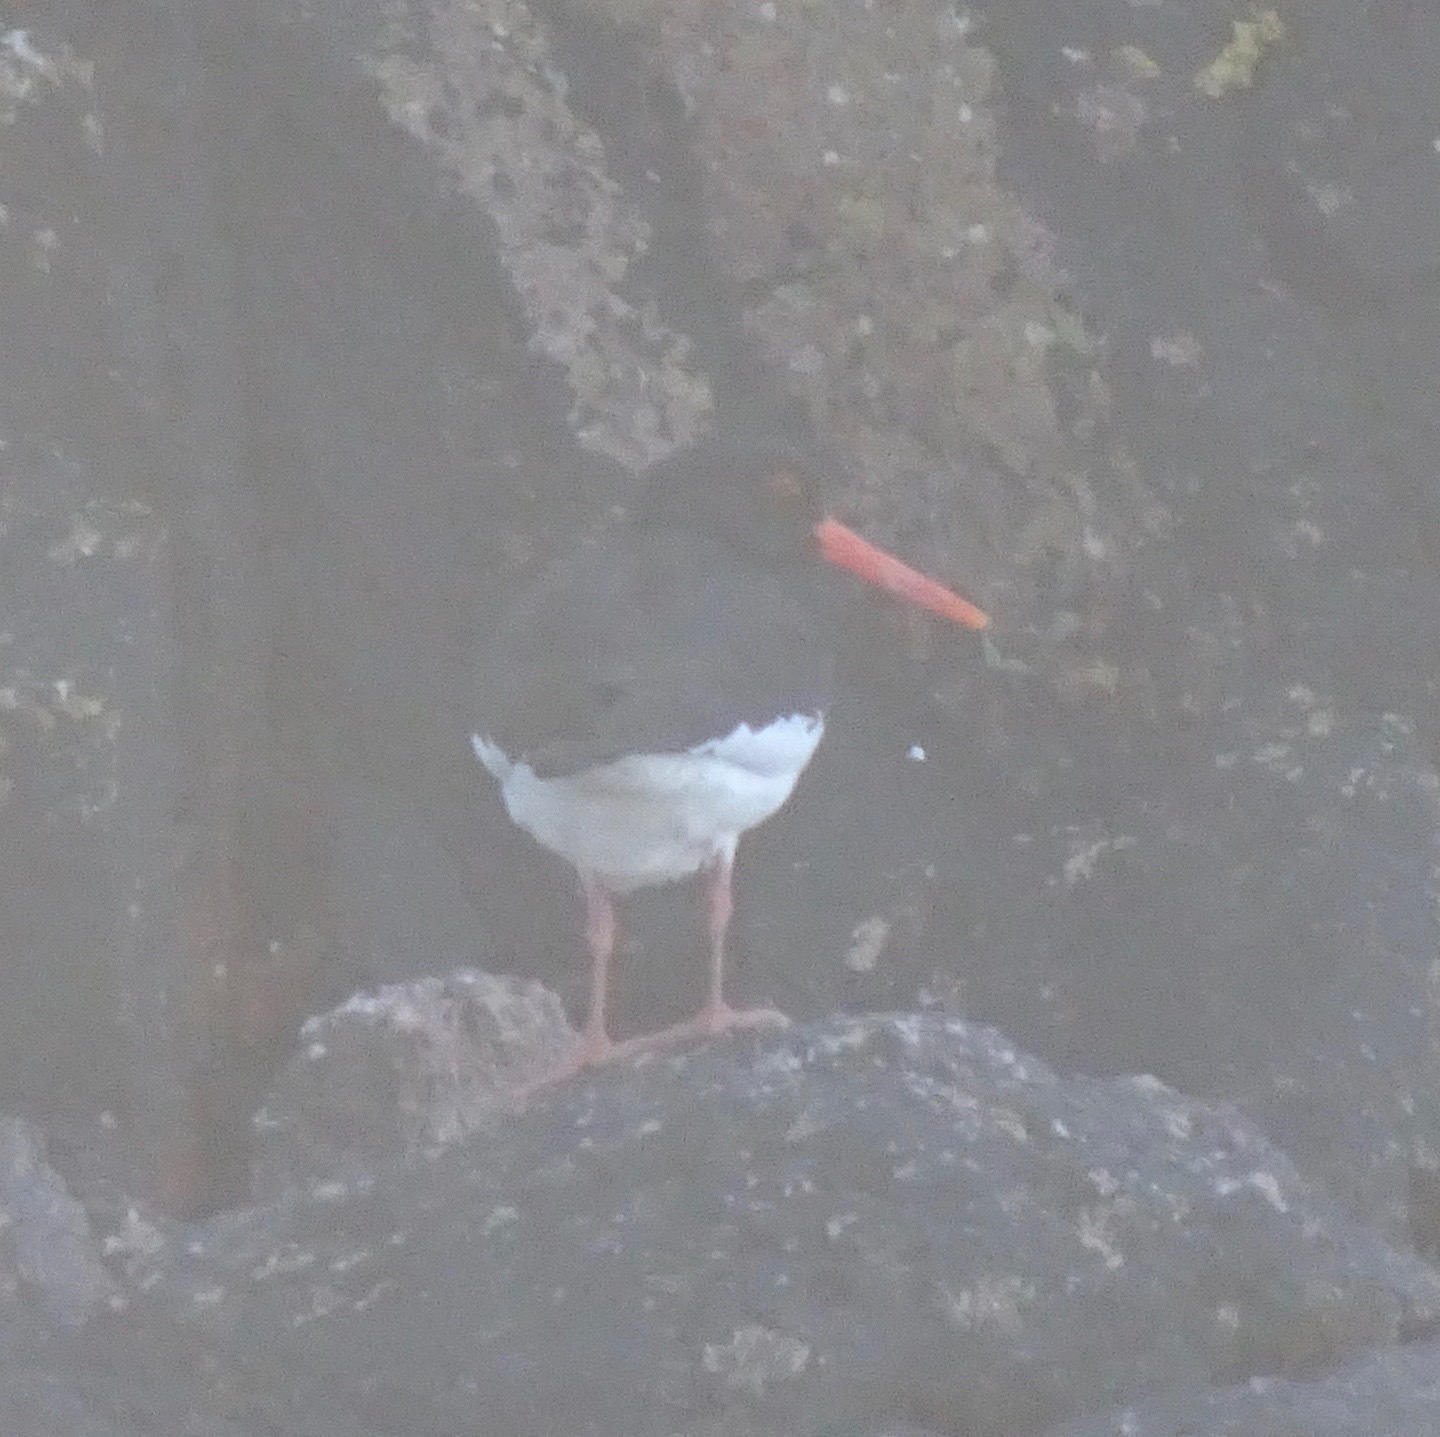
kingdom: Animalia
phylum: Chordata
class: Aves
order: Charadriiformes
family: Haematopodidae
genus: Haematopus
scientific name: Haematopus ostralegus
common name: Eurasian oystercatcher
